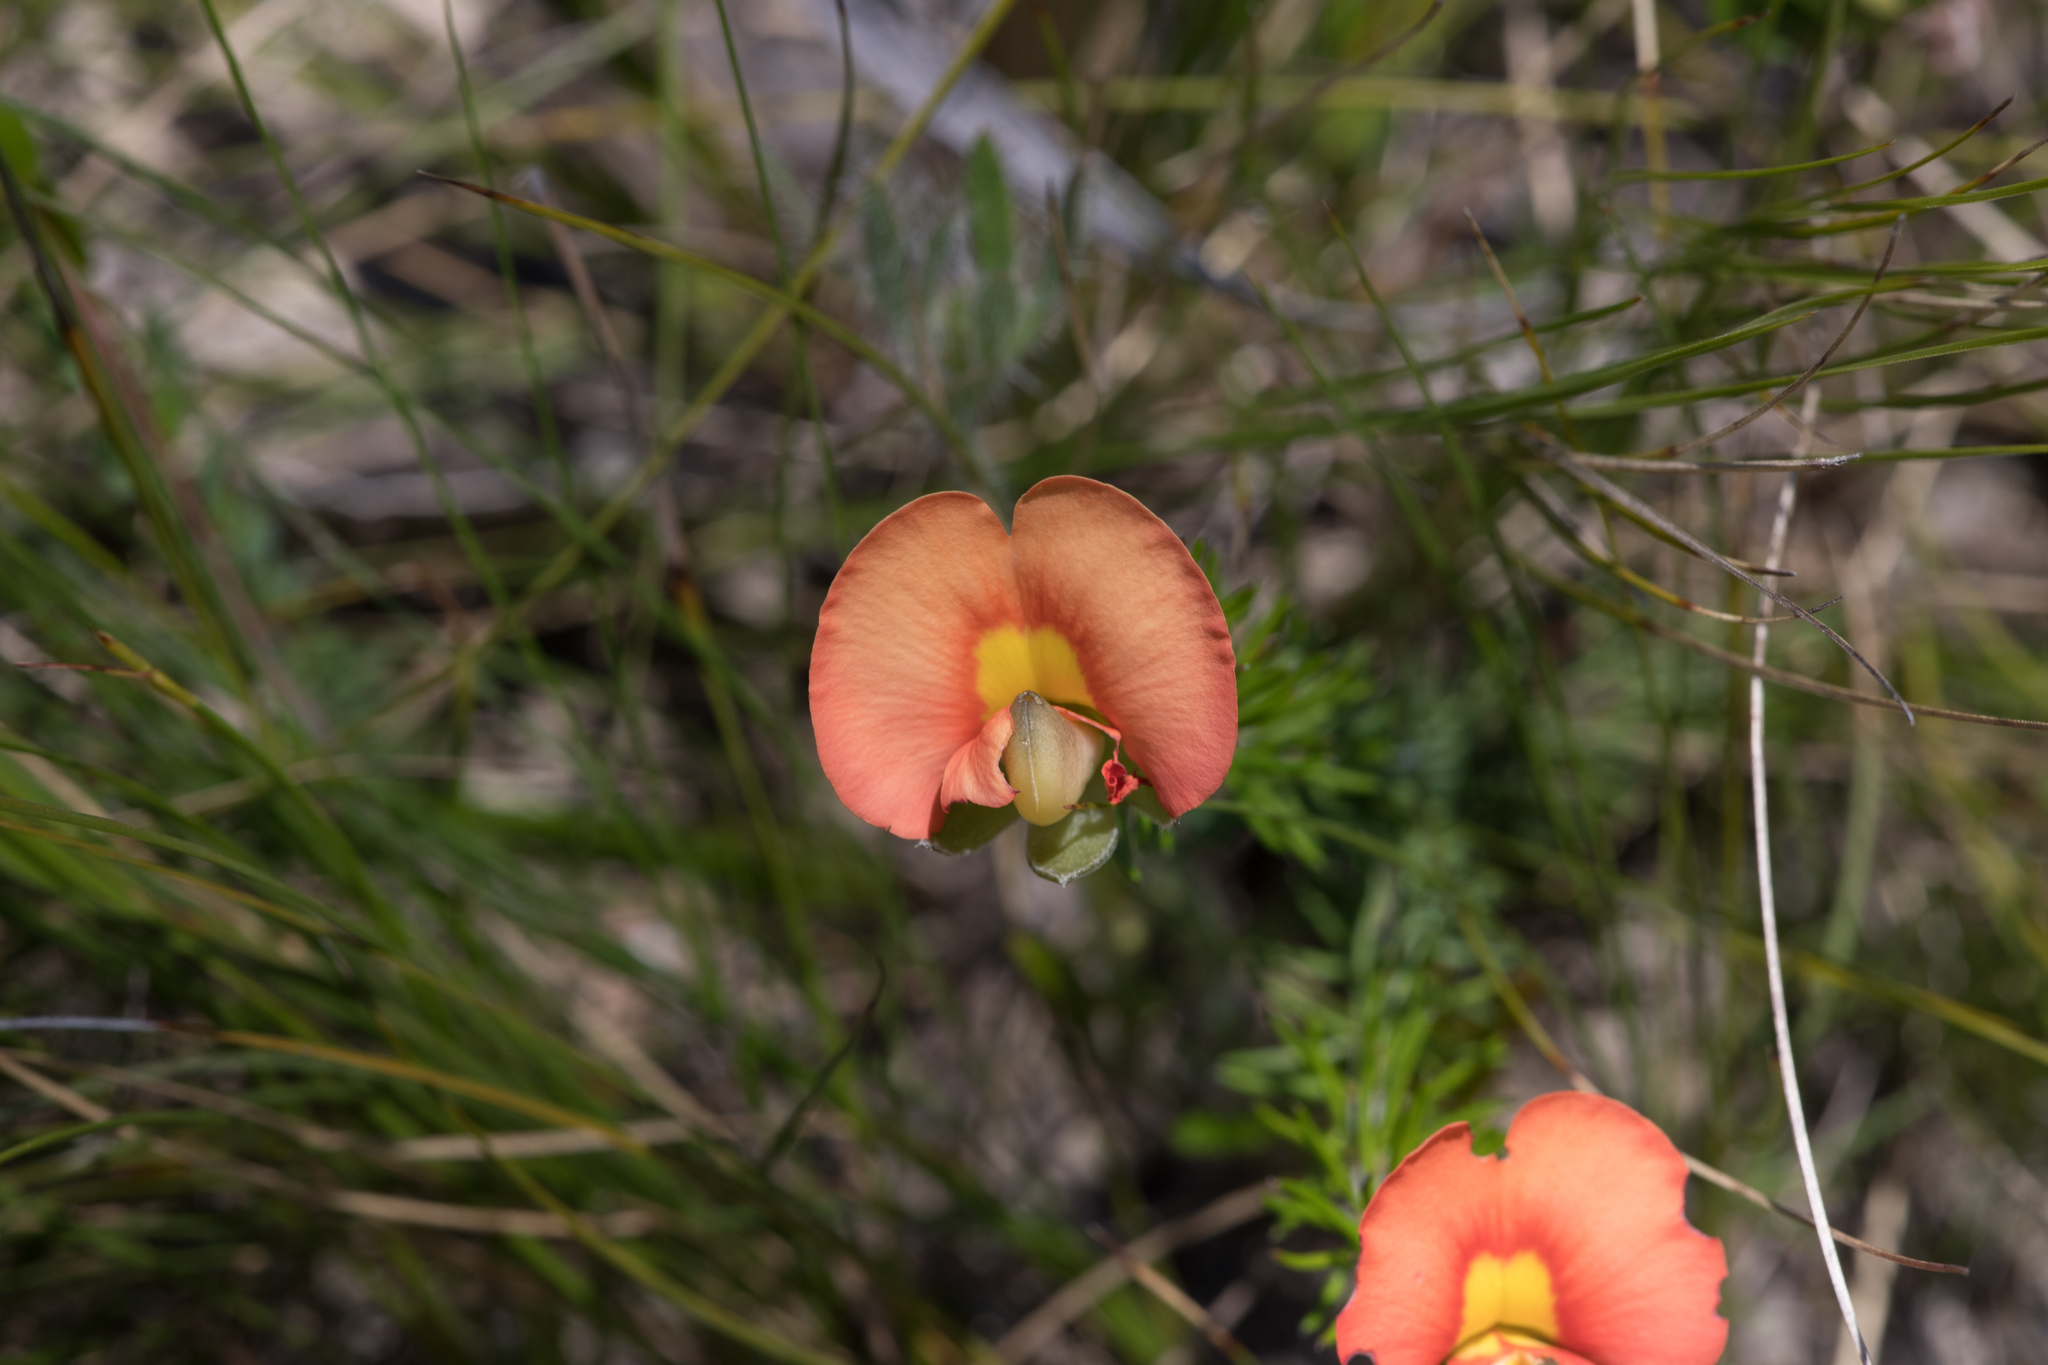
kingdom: Plantae
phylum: Tracheophyta
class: Magnoliopsida
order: Fabales
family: Fabaceae
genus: Gompholobium
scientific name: Gompholobium ecostatum
